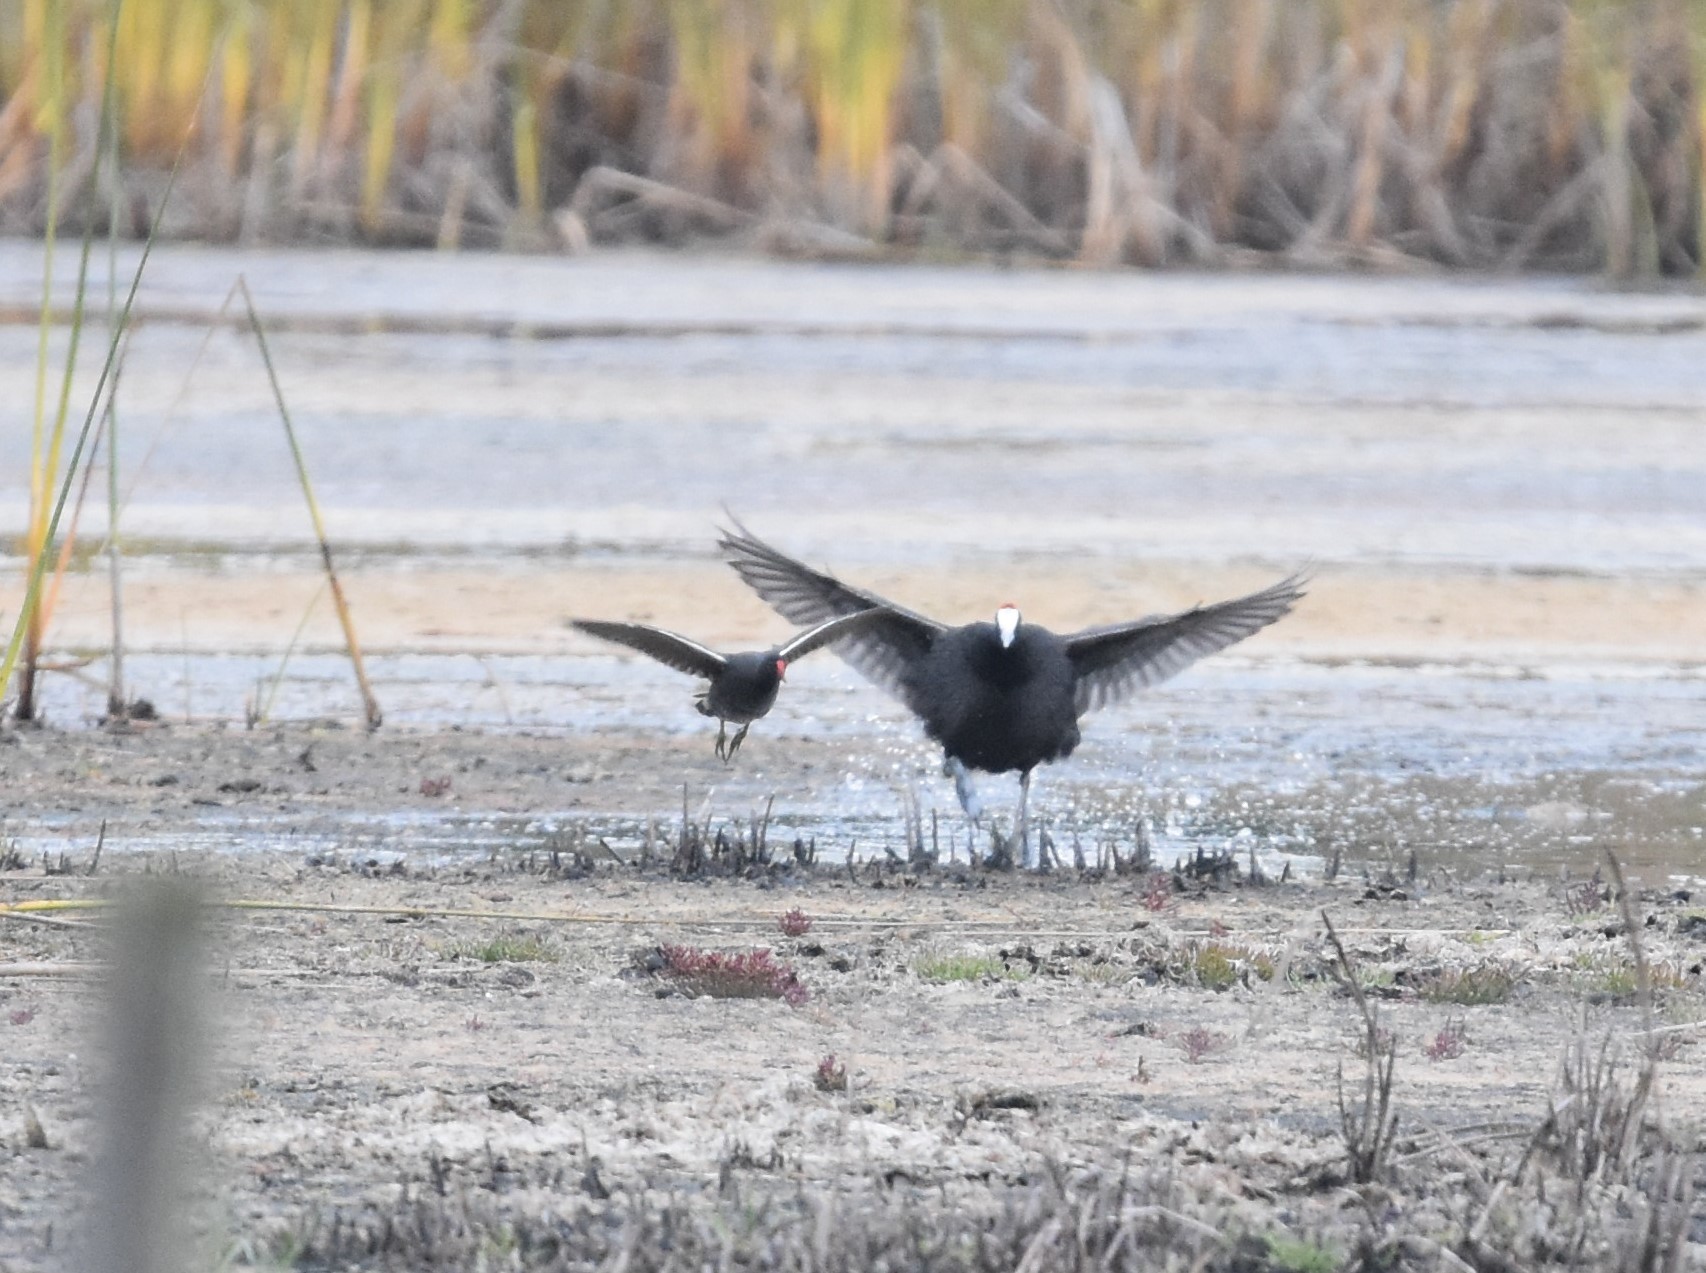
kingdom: Animalia
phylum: Chordata
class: Aves
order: Gruiformes
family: Rallidae
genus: Gallinula
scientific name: Gallinula chloropus
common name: Common moorhen
